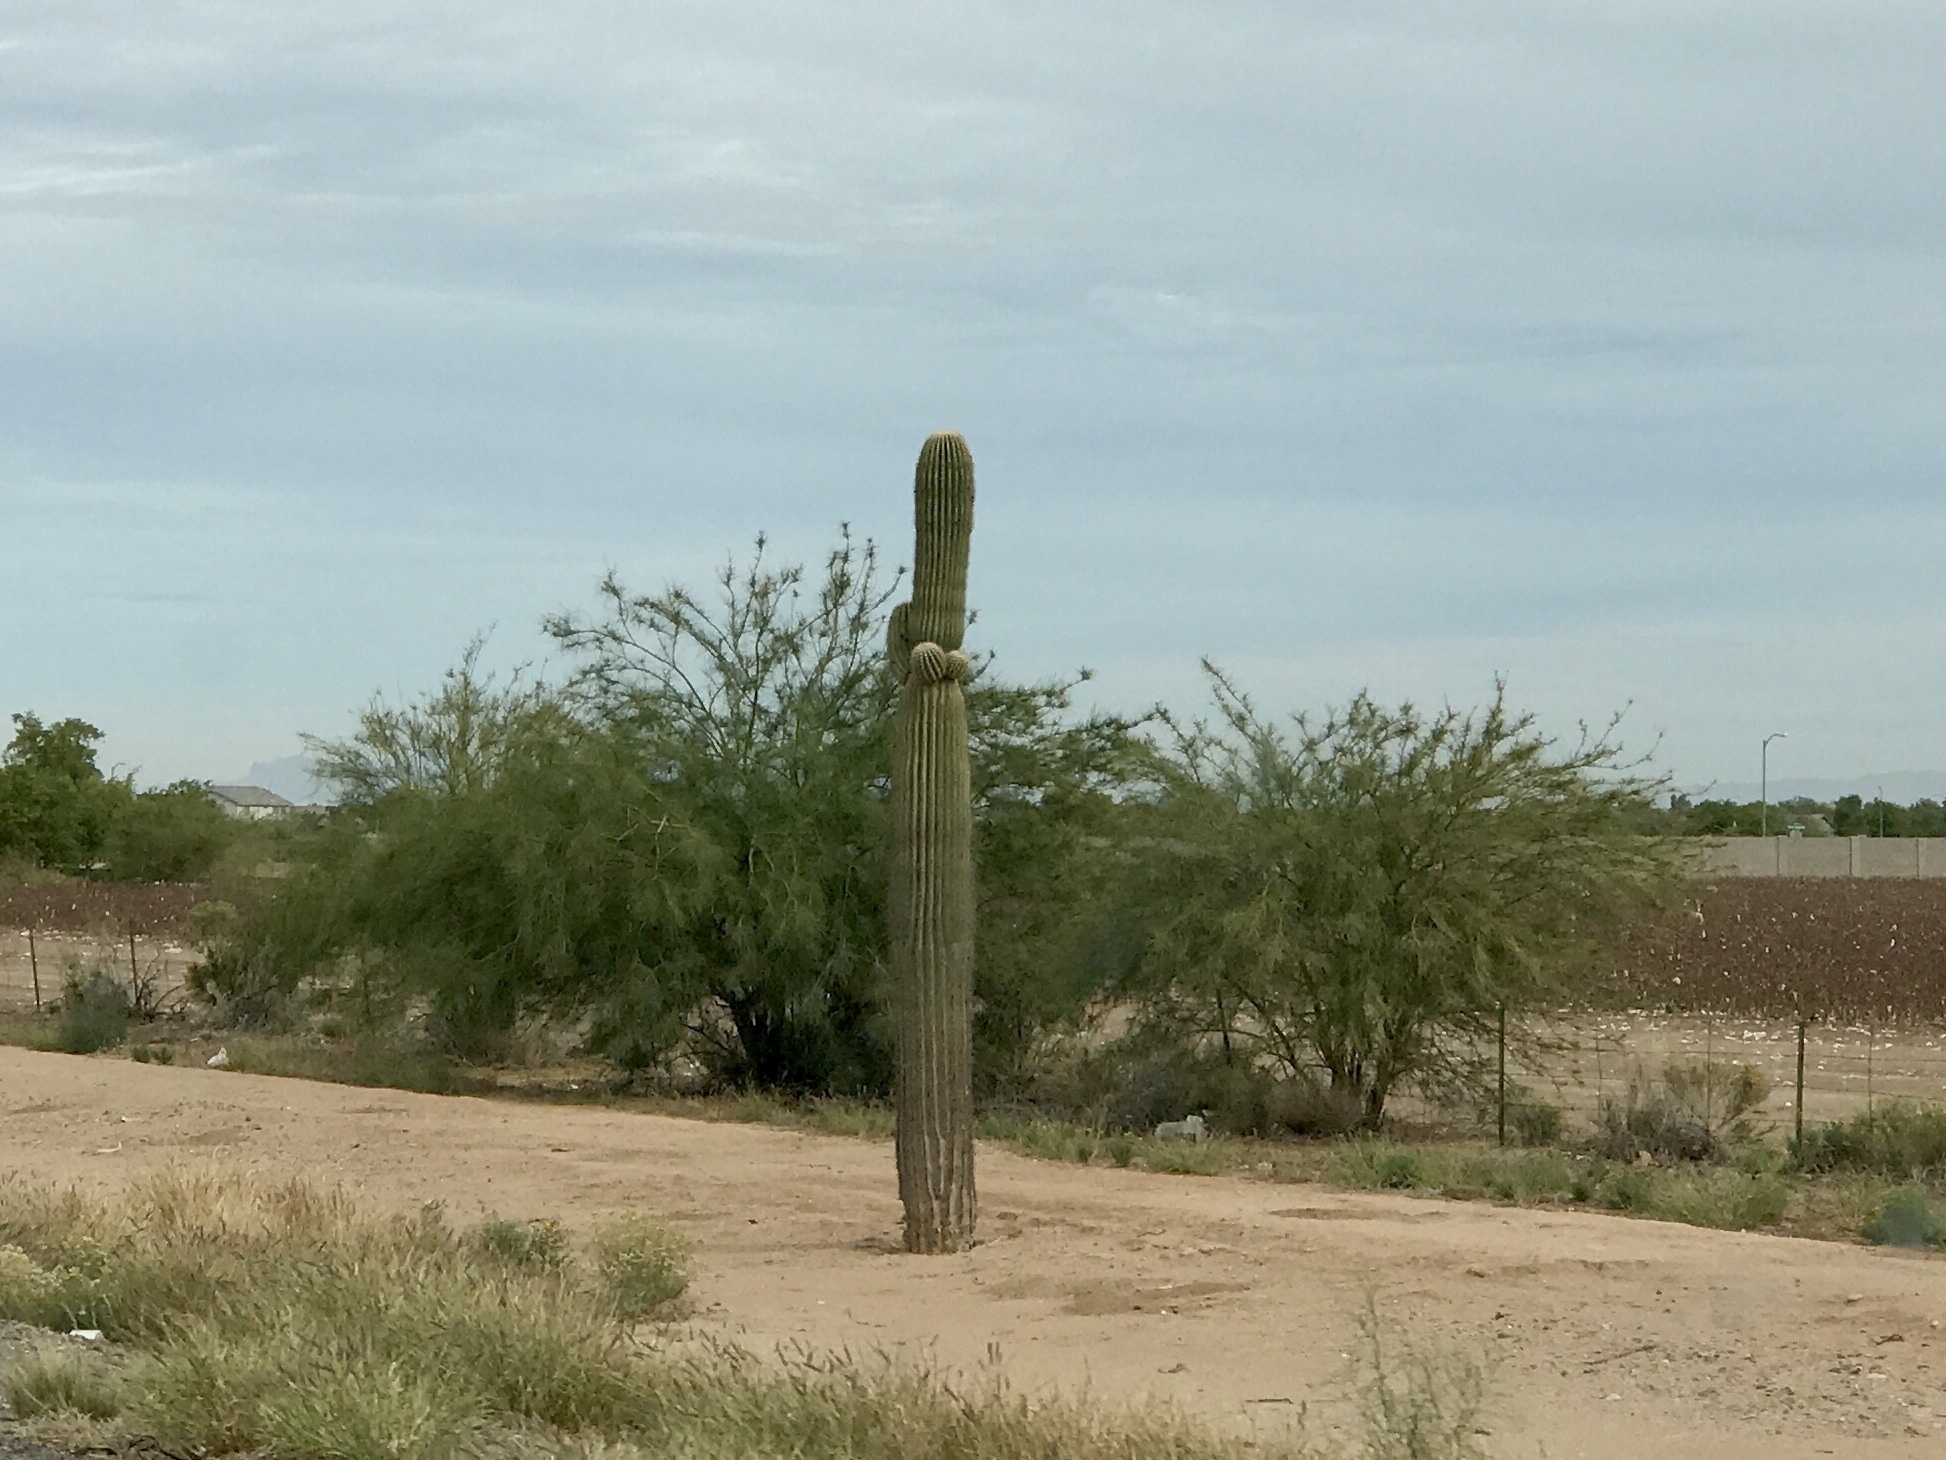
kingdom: Plantae
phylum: Tracheophyta
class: Magnoliopsida
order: Caryophyllales
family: Cactaceae
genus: Carnegiea
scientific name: Carnegiea gigantea
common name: Saguaro
